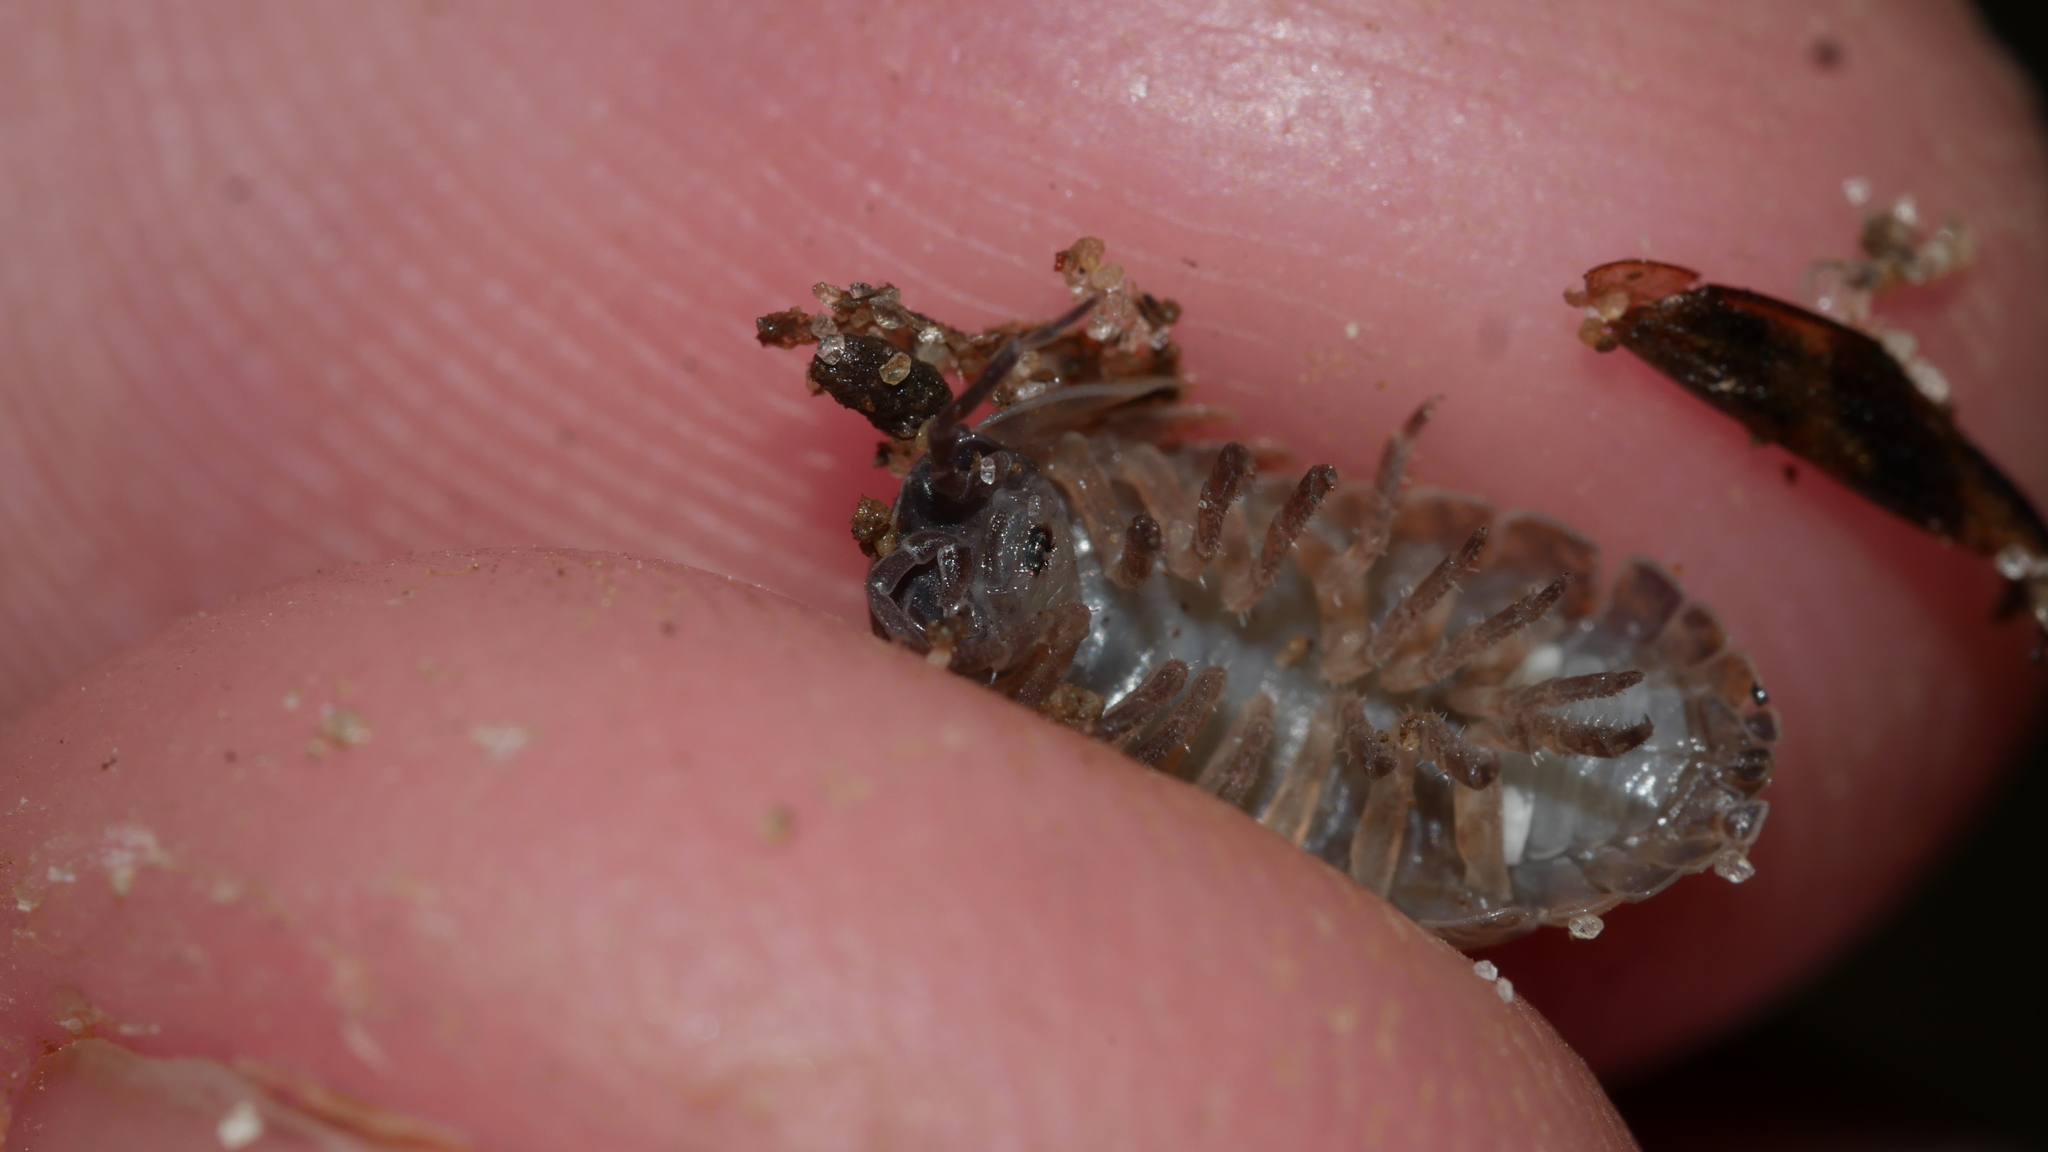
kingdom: Animalia
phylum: Arthropoda
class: Malacostraca
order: Isopoda
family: Armadillidiidae
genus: Armadillidium
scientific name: Armadillidium vulgare
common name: Common pill woodlouse
